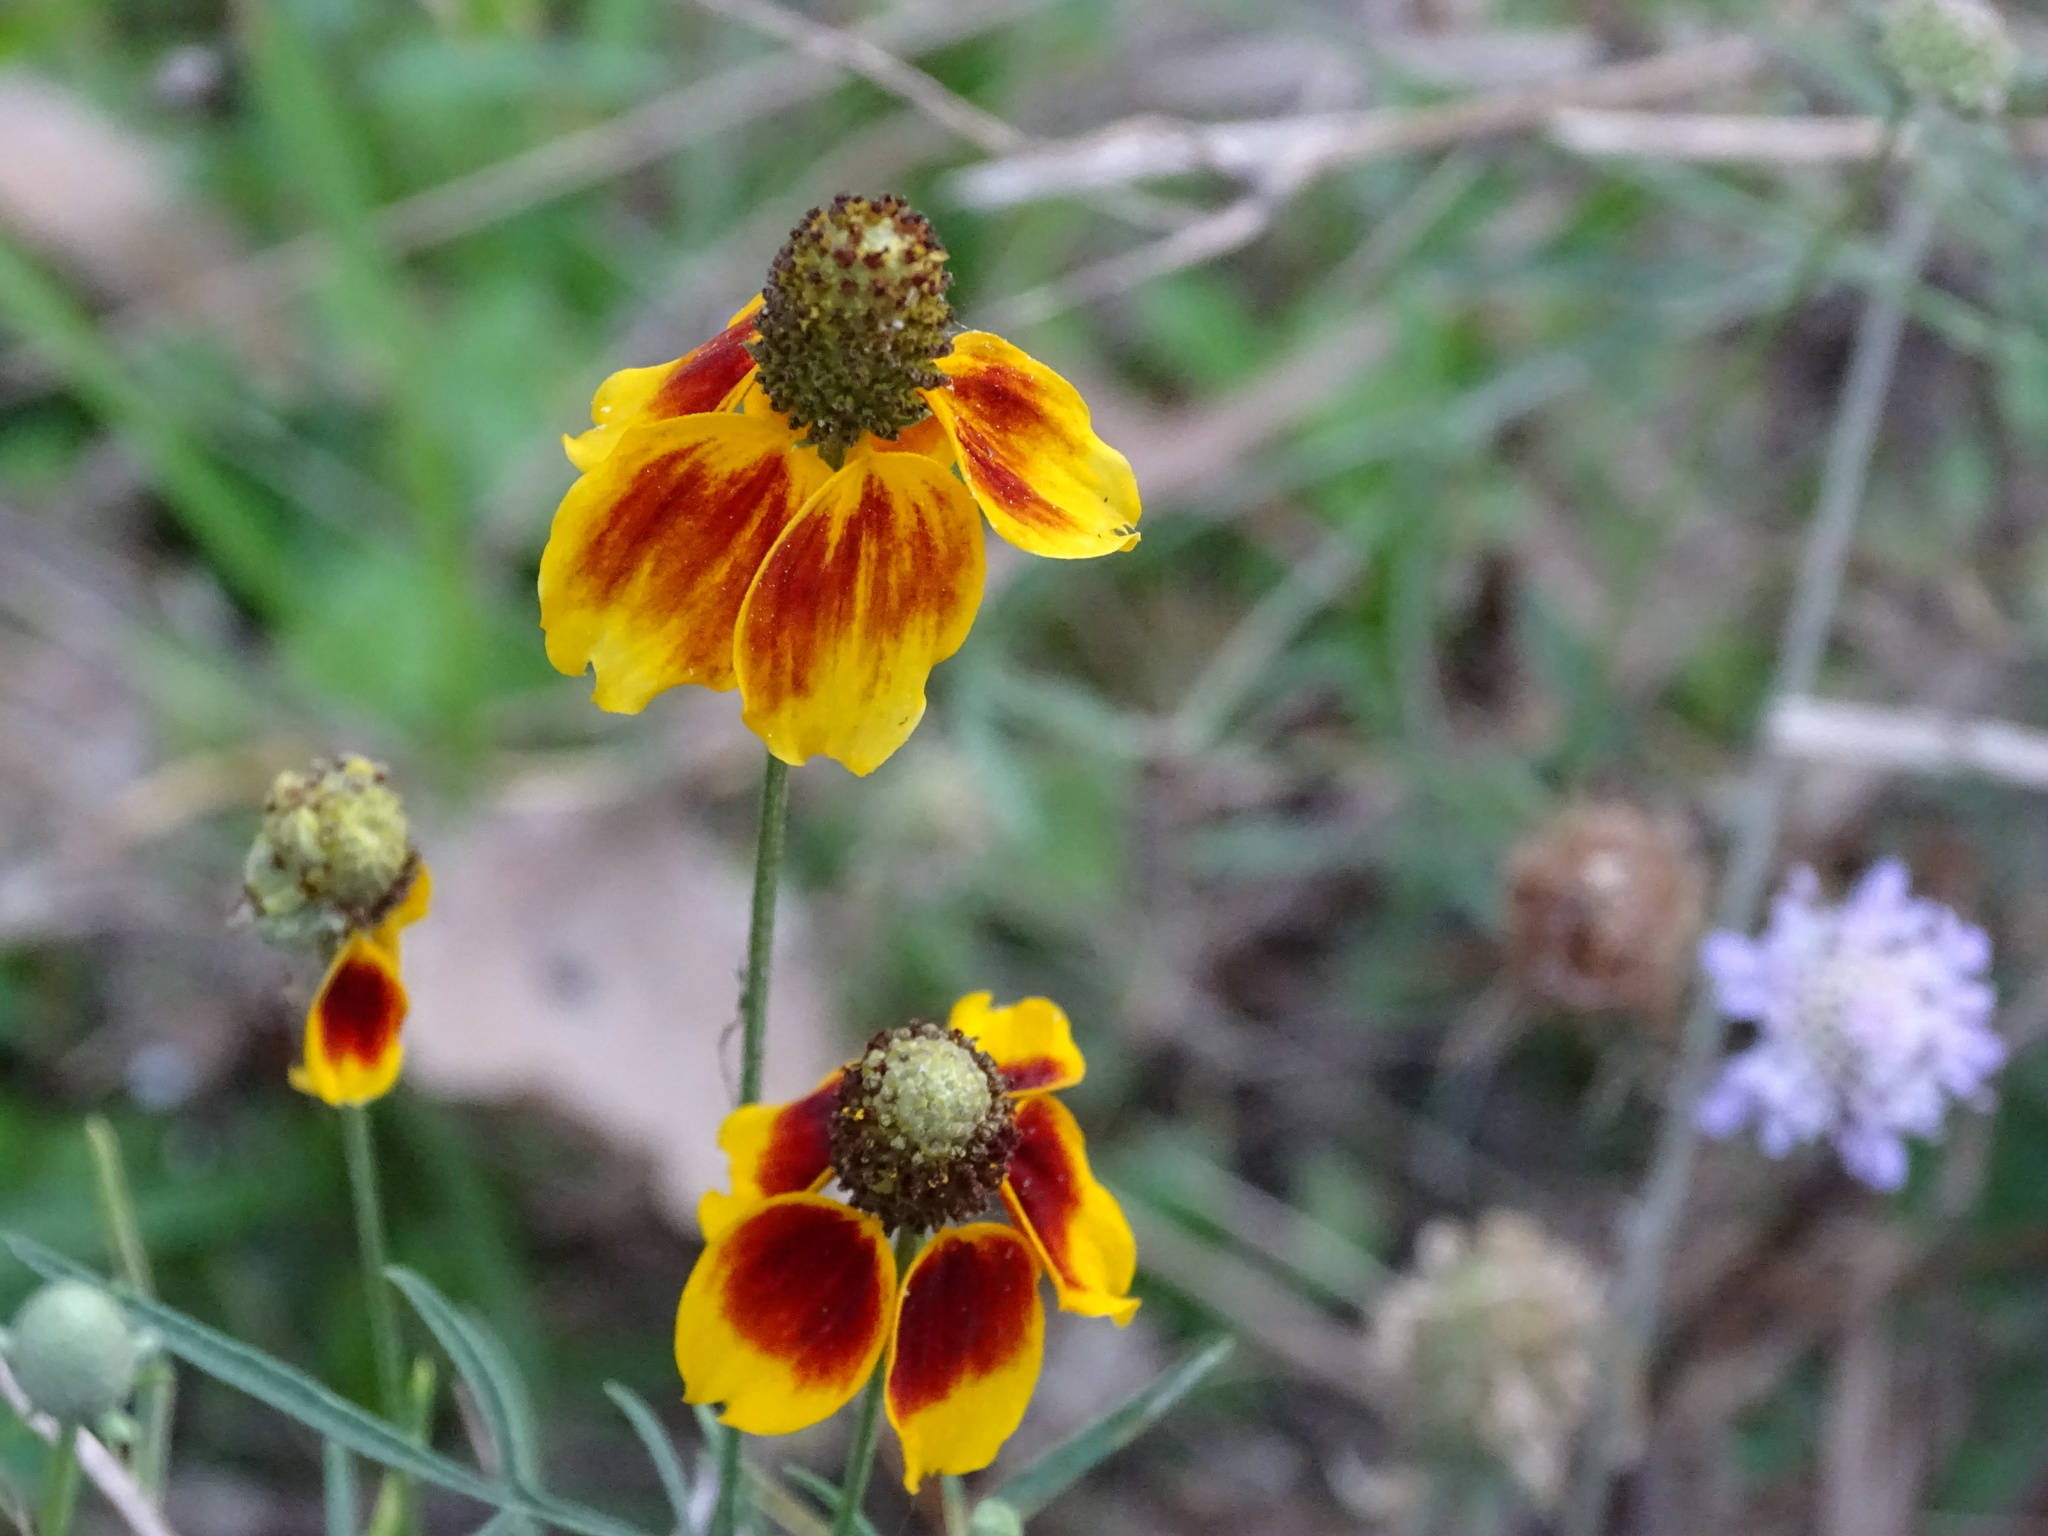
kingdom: Plantae
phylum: Tracheophyta
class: Magnoliopsida
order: Asterales
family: Asteraceae
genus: Ratibida
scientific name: Ratibida columnifera
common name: Prairie coneflower
